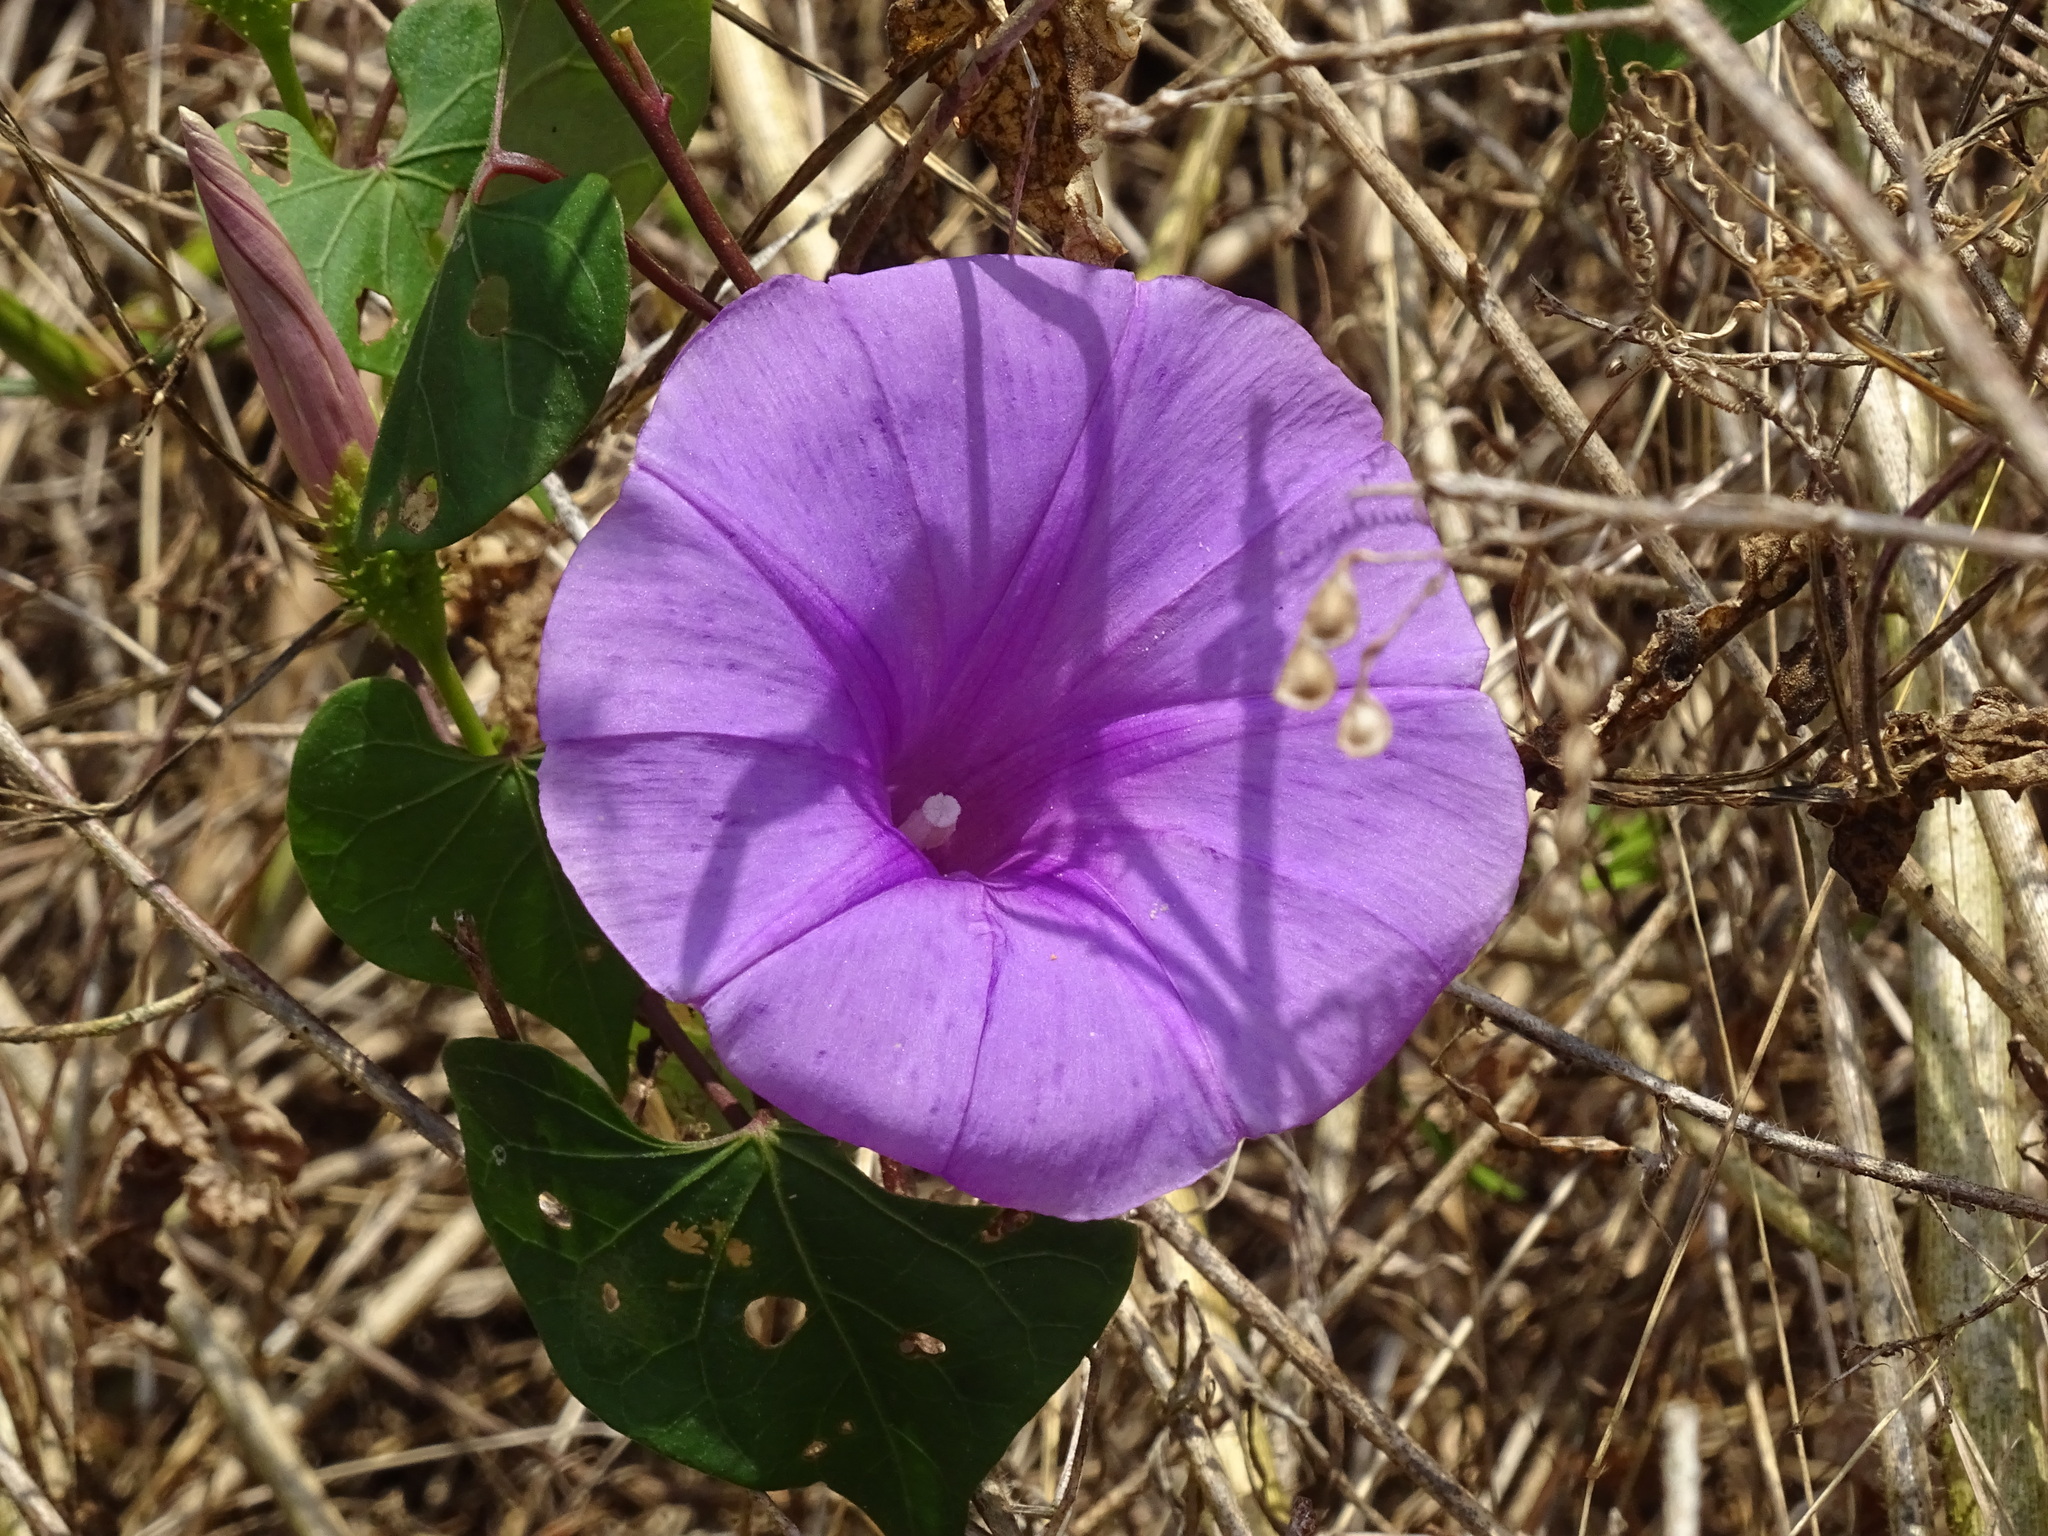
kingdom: Plantae
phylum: Tracheophyta
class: Magnoliopsida
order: Solanales
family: Convolvulaceae
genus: Ipomoea
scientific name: Ipomoea crinicalyx
